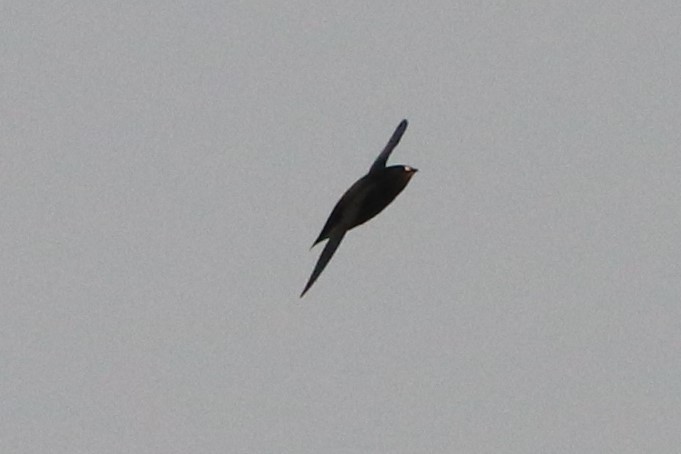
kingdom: Animalia
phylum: Chordata
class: Aves
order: Apodiformes
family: Apodidae
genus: Hirundapus
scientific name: Hirundapus giganteus
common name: Brown-backed needletail
